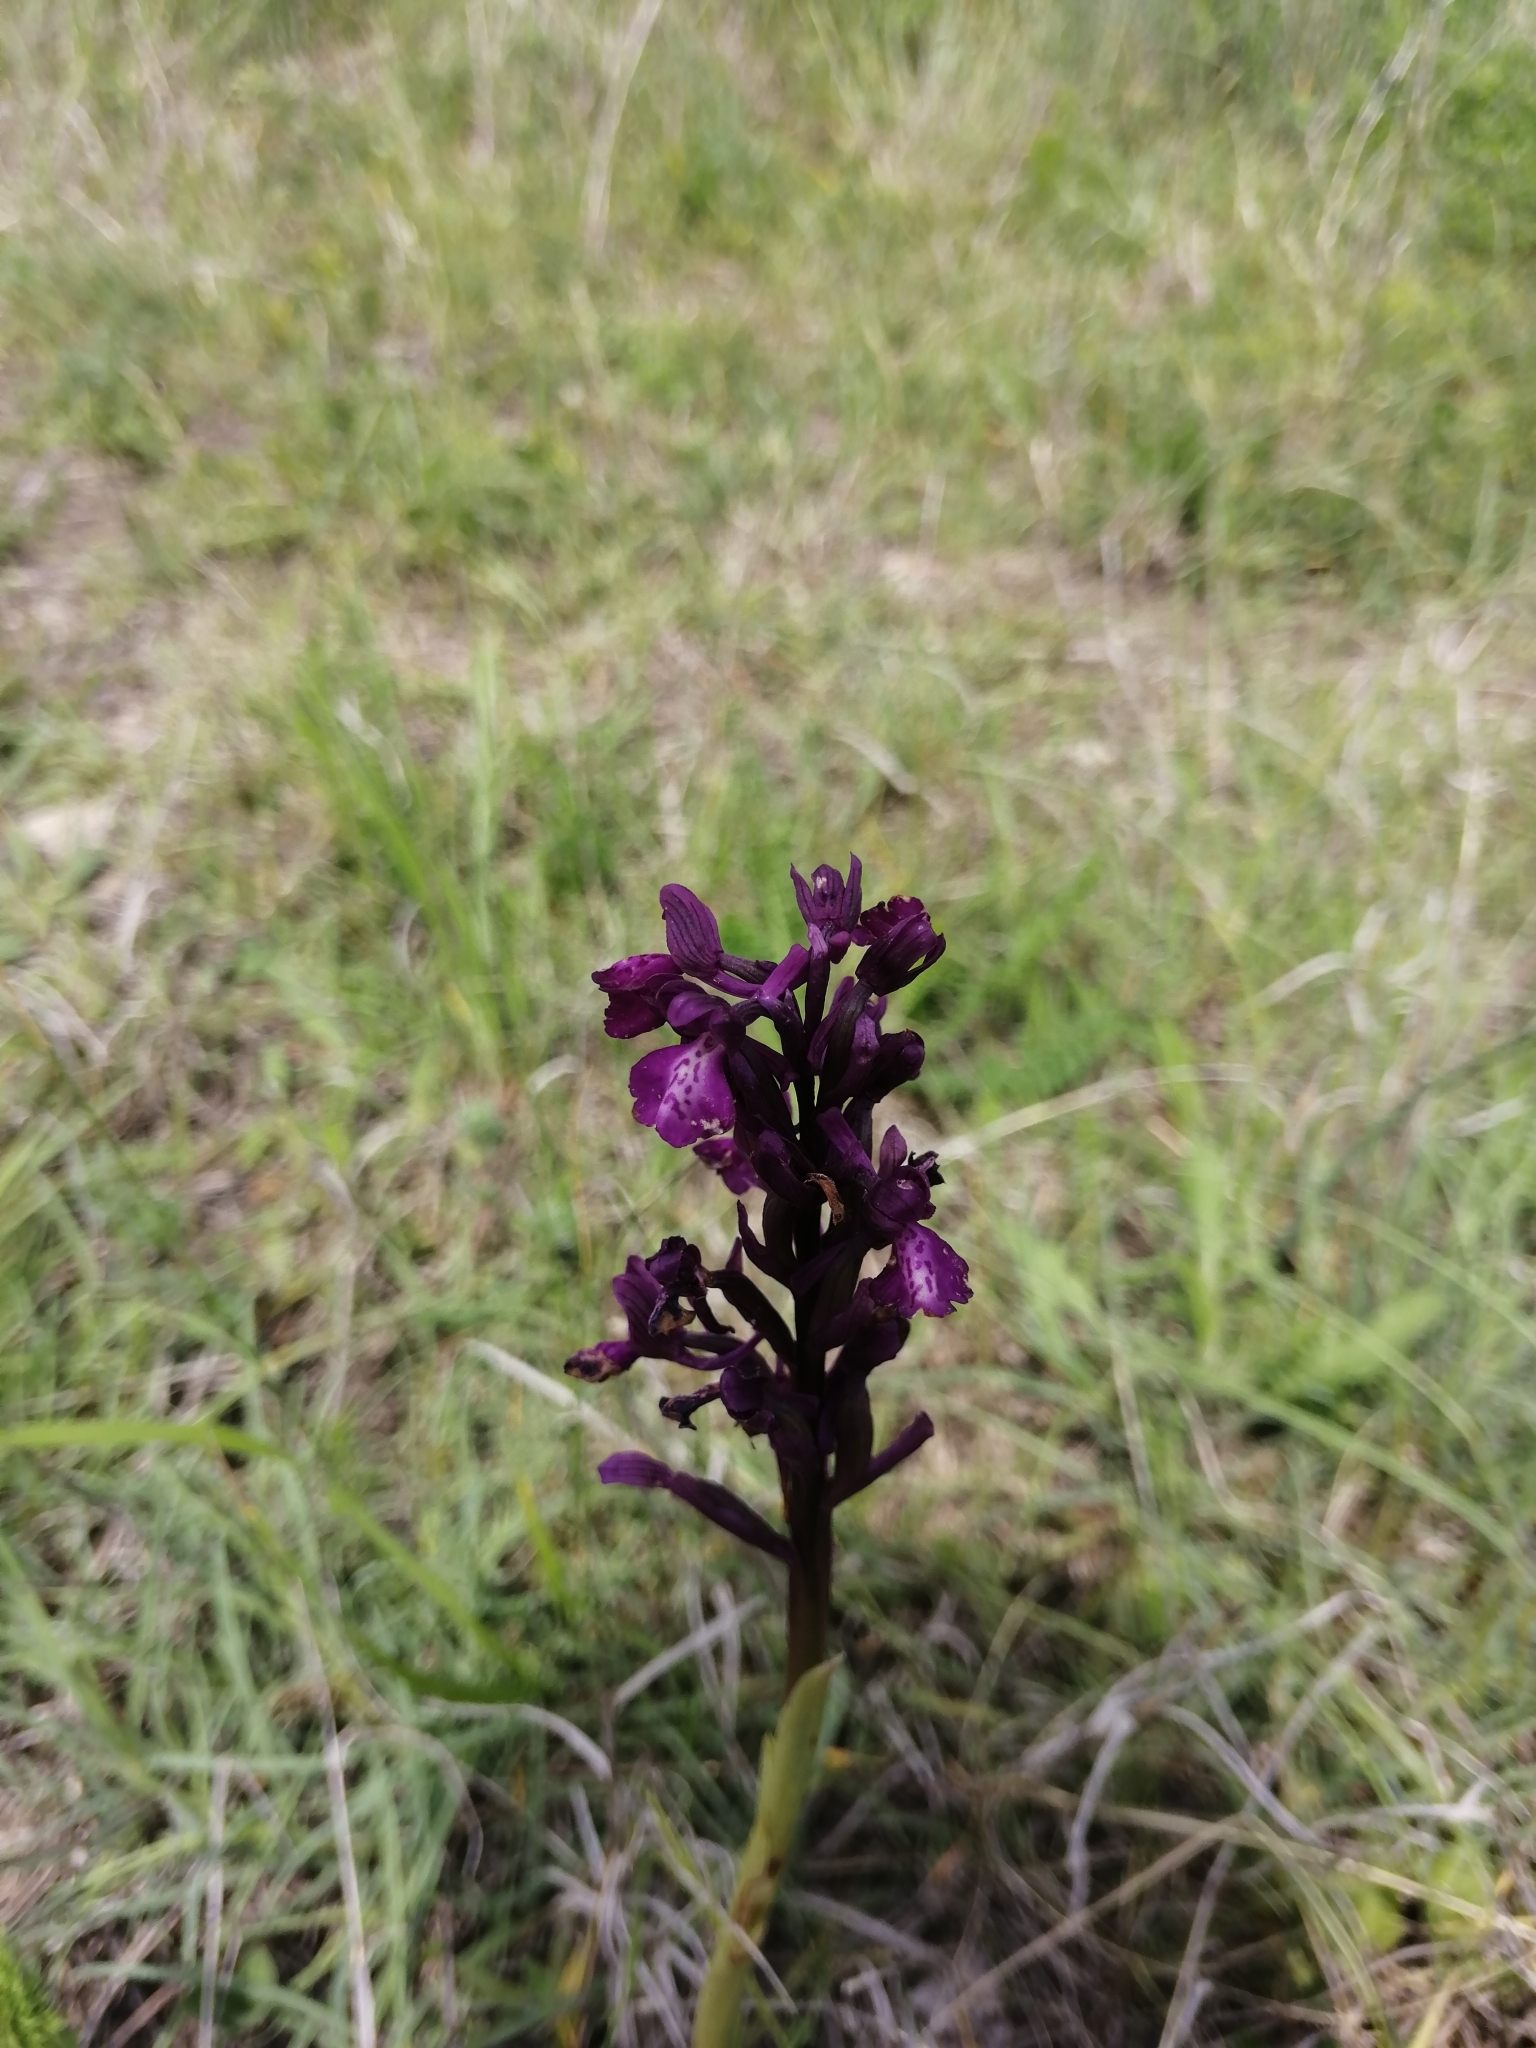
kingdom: Plantae
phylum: Tracheophyta
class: Liliopsida
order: Asparagales
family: Orchidaceae
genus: Anacamptis
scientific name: Anacamptis morio
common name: Green-winged orchid
